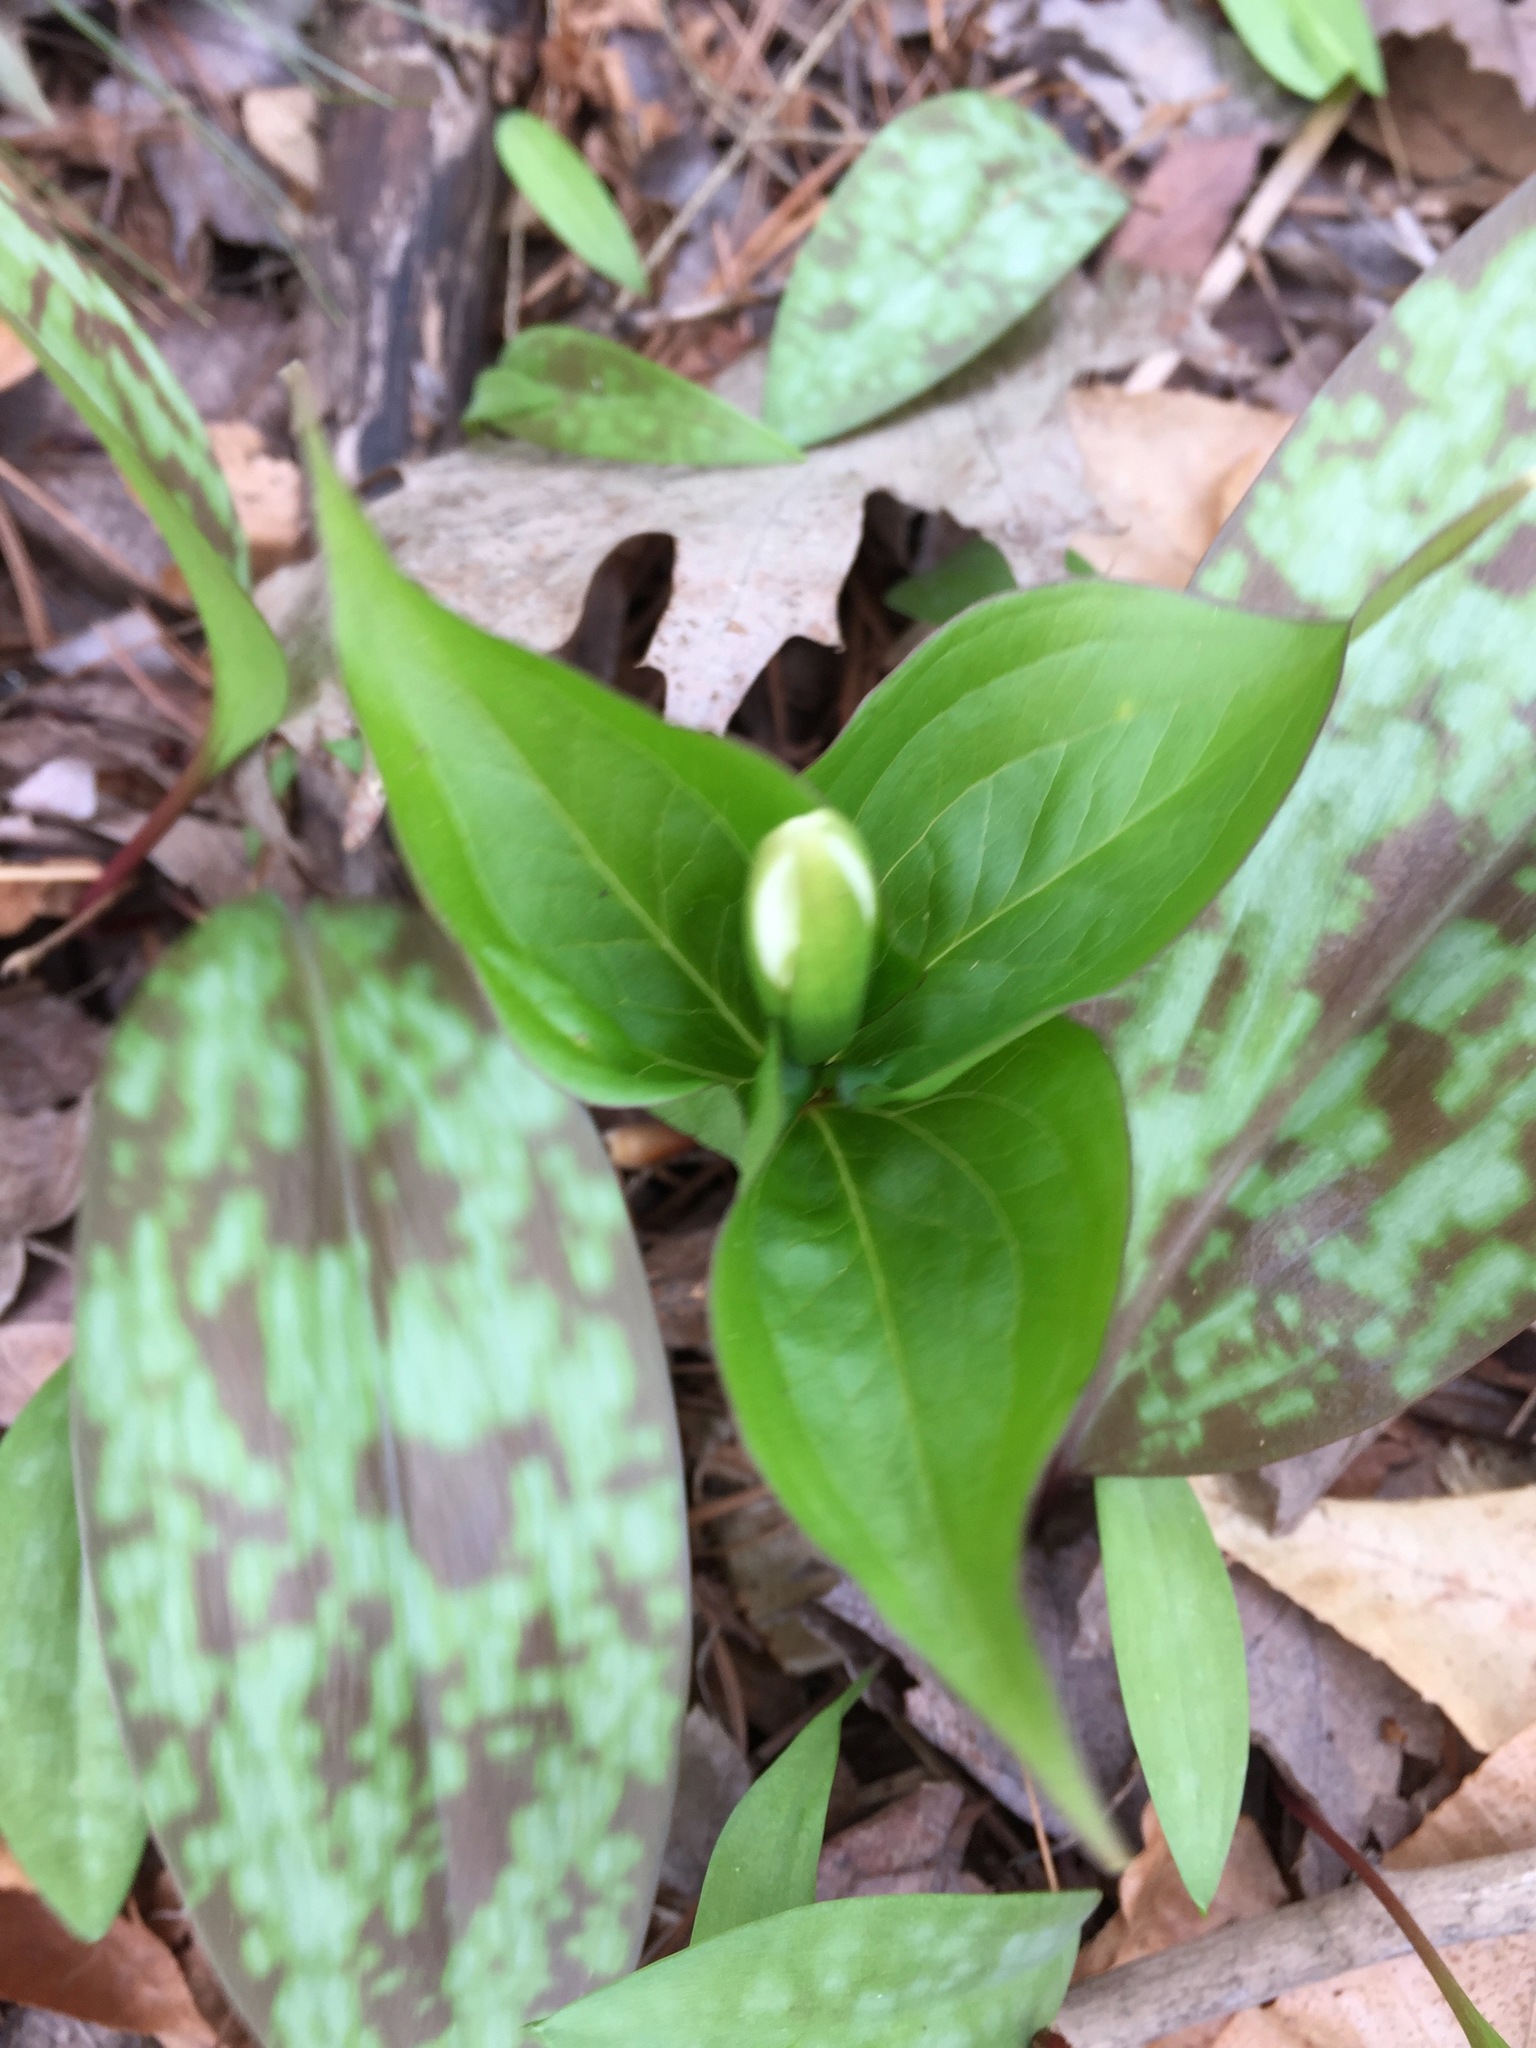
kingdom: Plantae
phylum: Tracheophyta
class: Liliopsida
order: Liliales
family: Melanthiaceae
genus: Trillium
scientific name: Trillium grandiflorum
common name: Great white trillium
